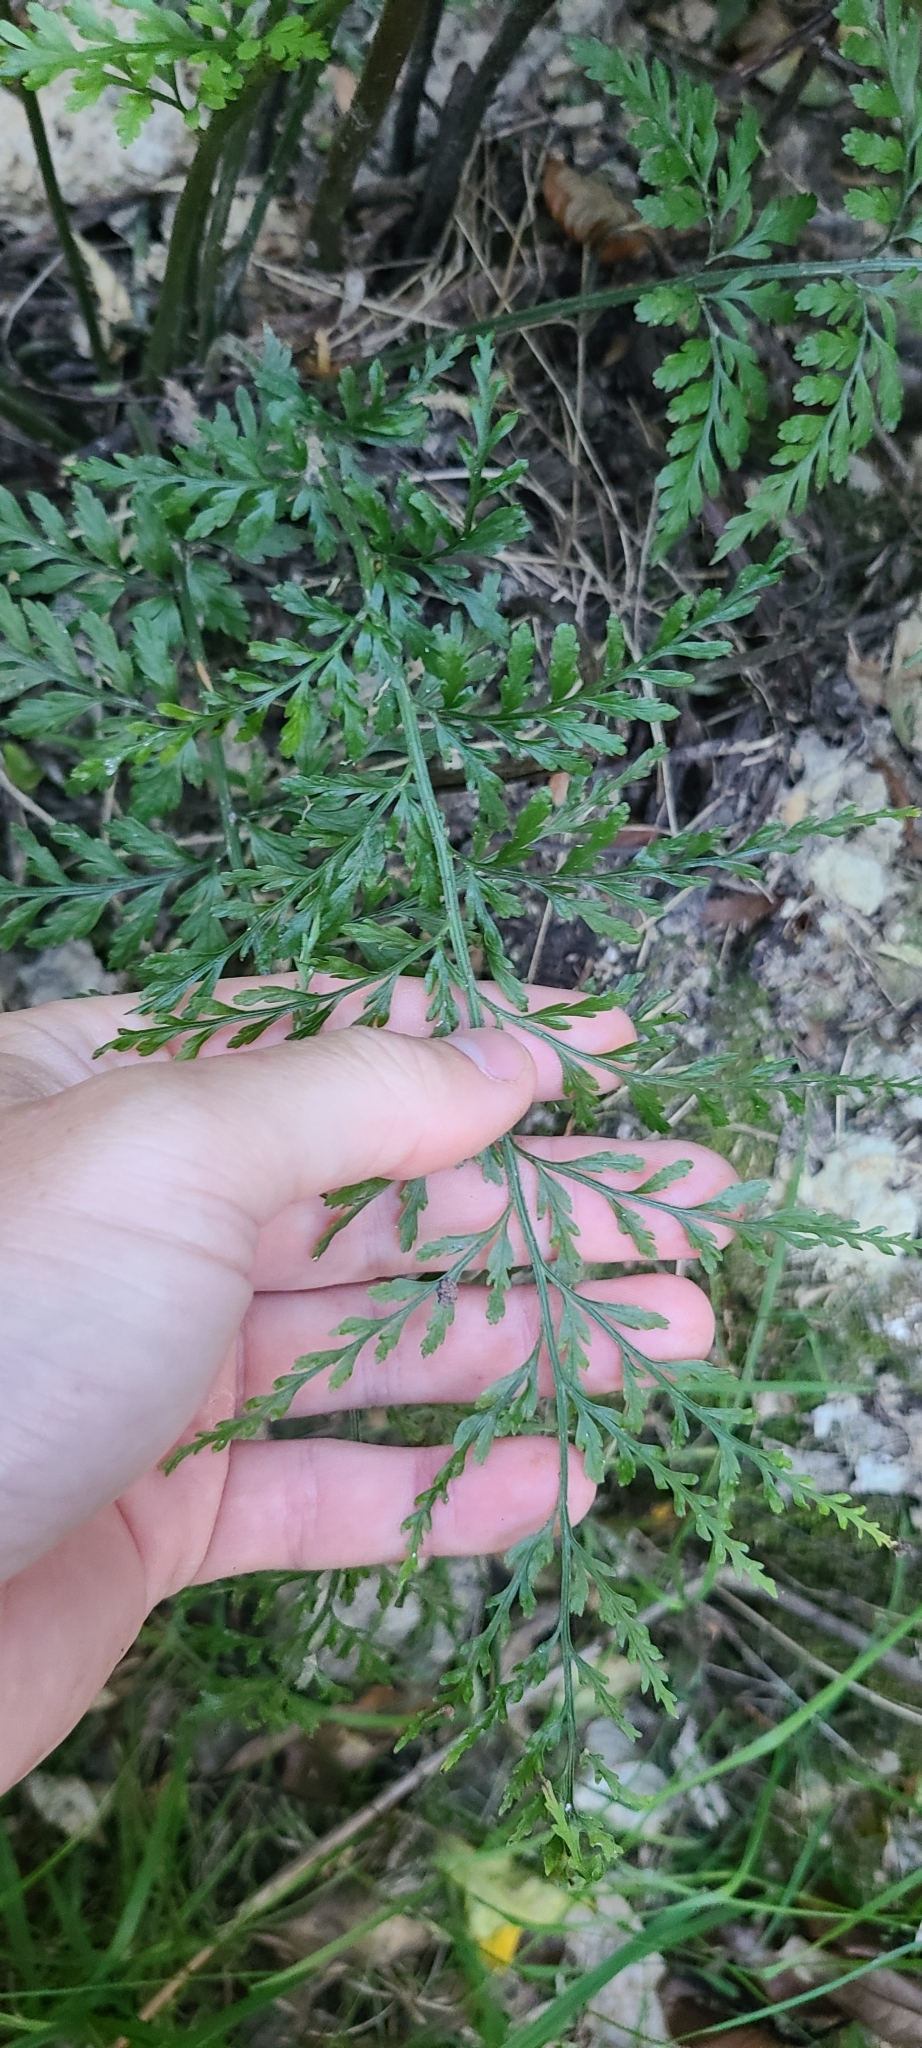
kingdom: Plantae
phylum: Tracheophyta
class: Polypodiopsida
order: Polypodiales
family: Aspleniaceae
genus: Asplenium
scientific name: Asplenium
